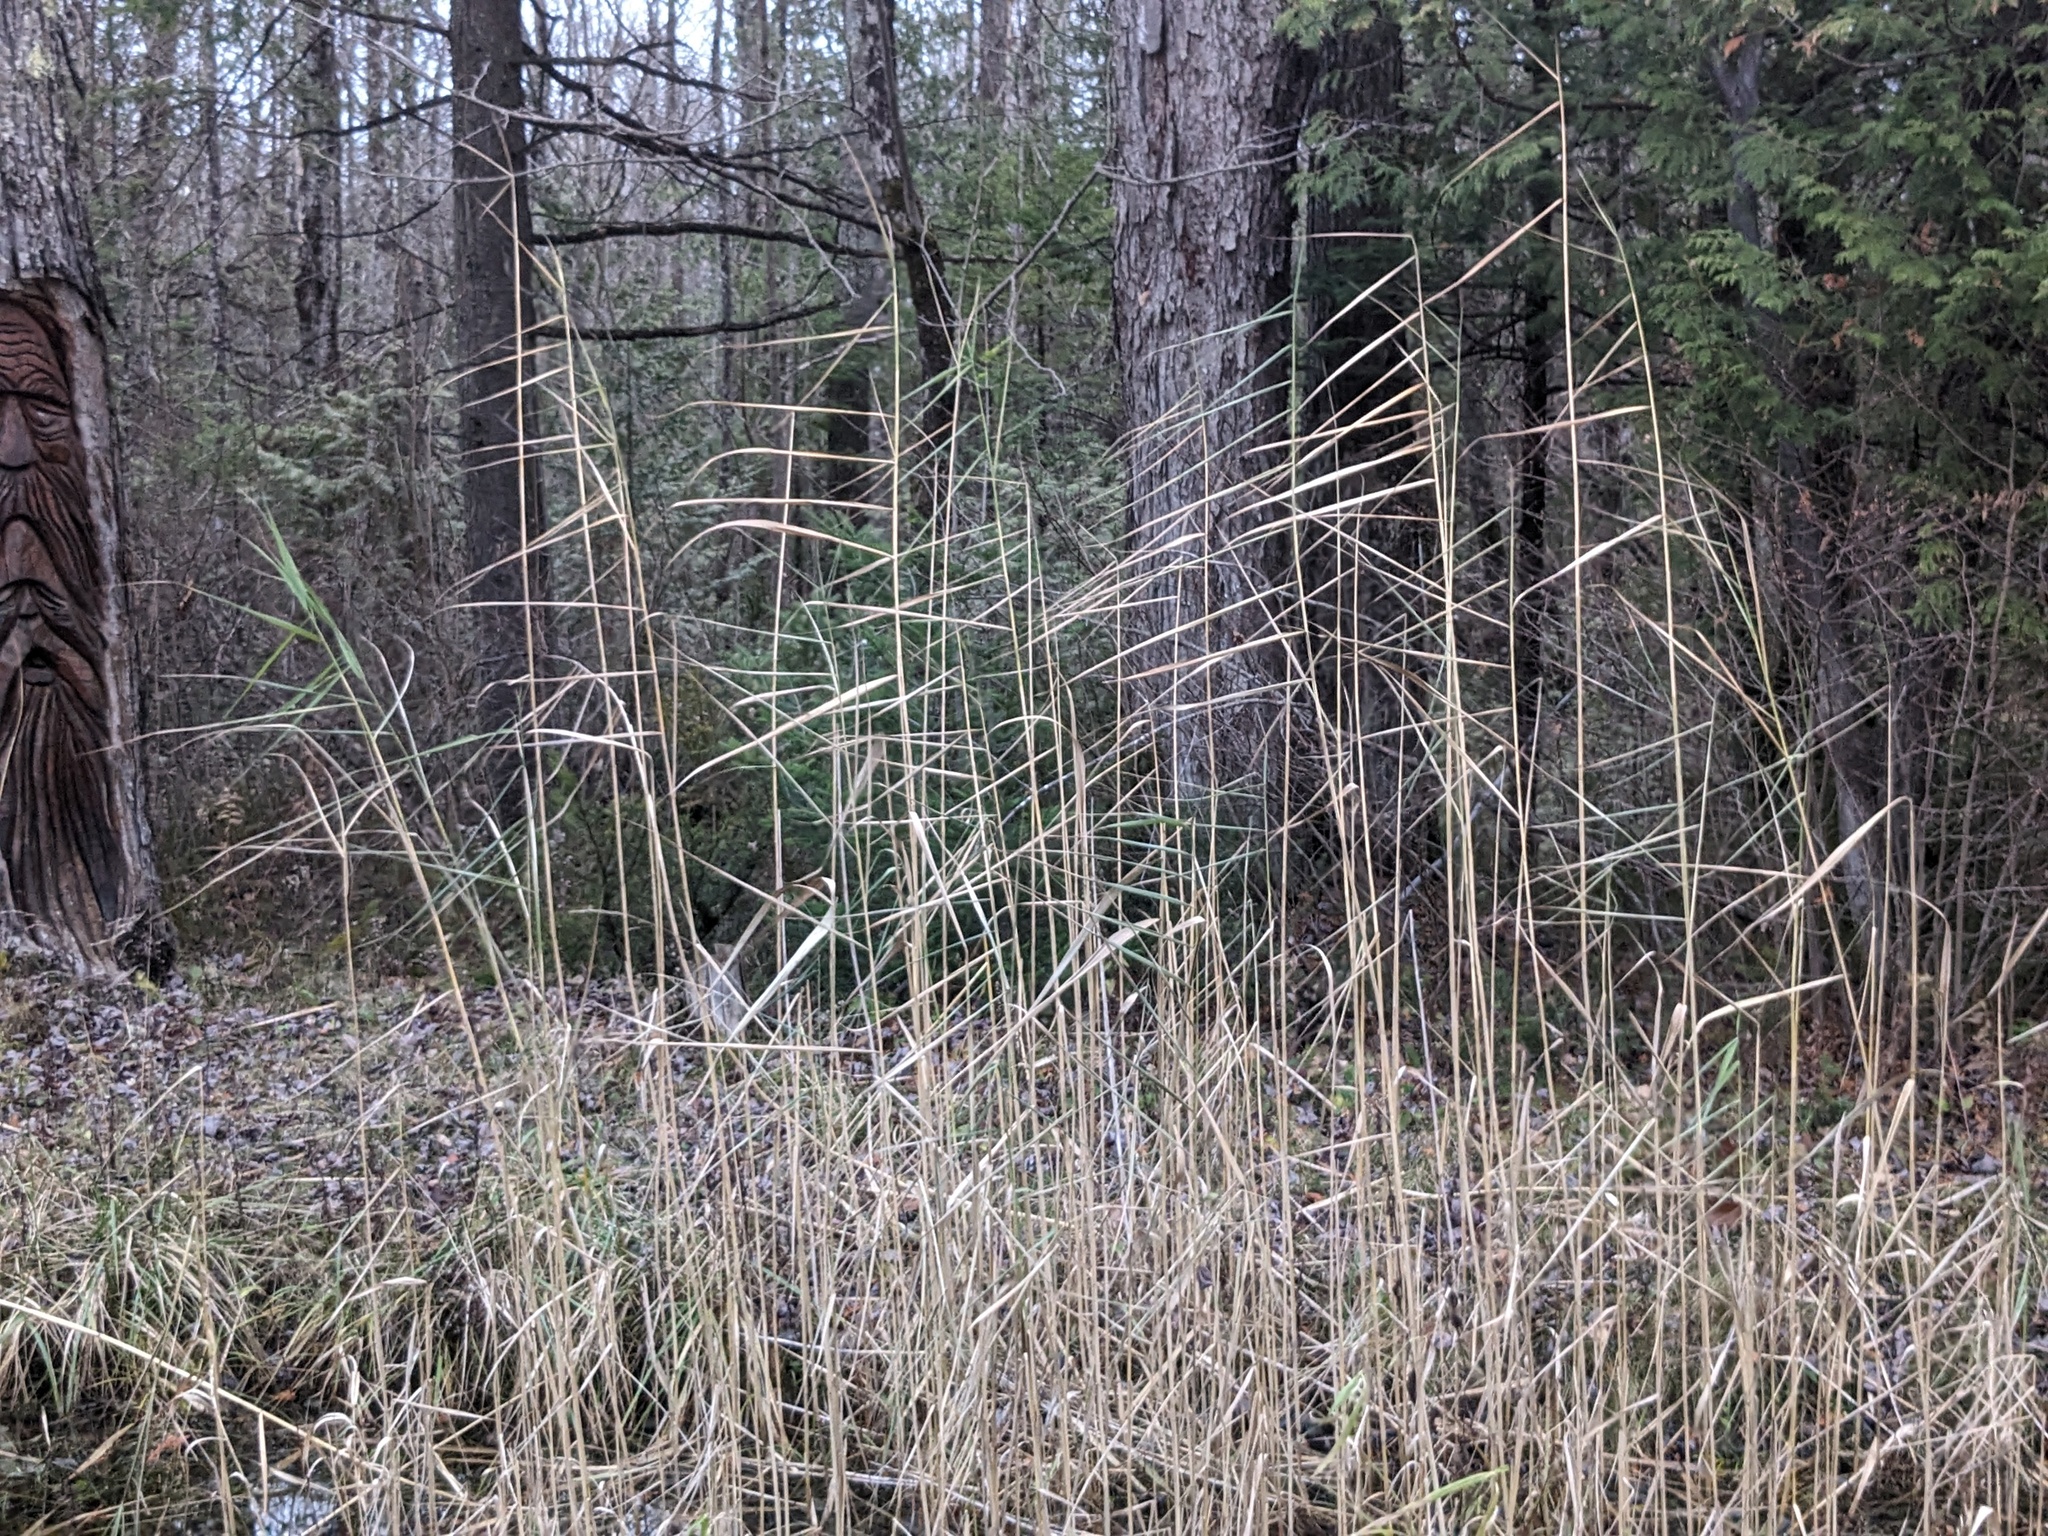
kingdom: Plantae
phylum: Tracheophyta
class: Liliopsida
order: Poales
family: Poaceae
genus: Phragmites
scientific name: Phragmites australis
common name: Common reed
